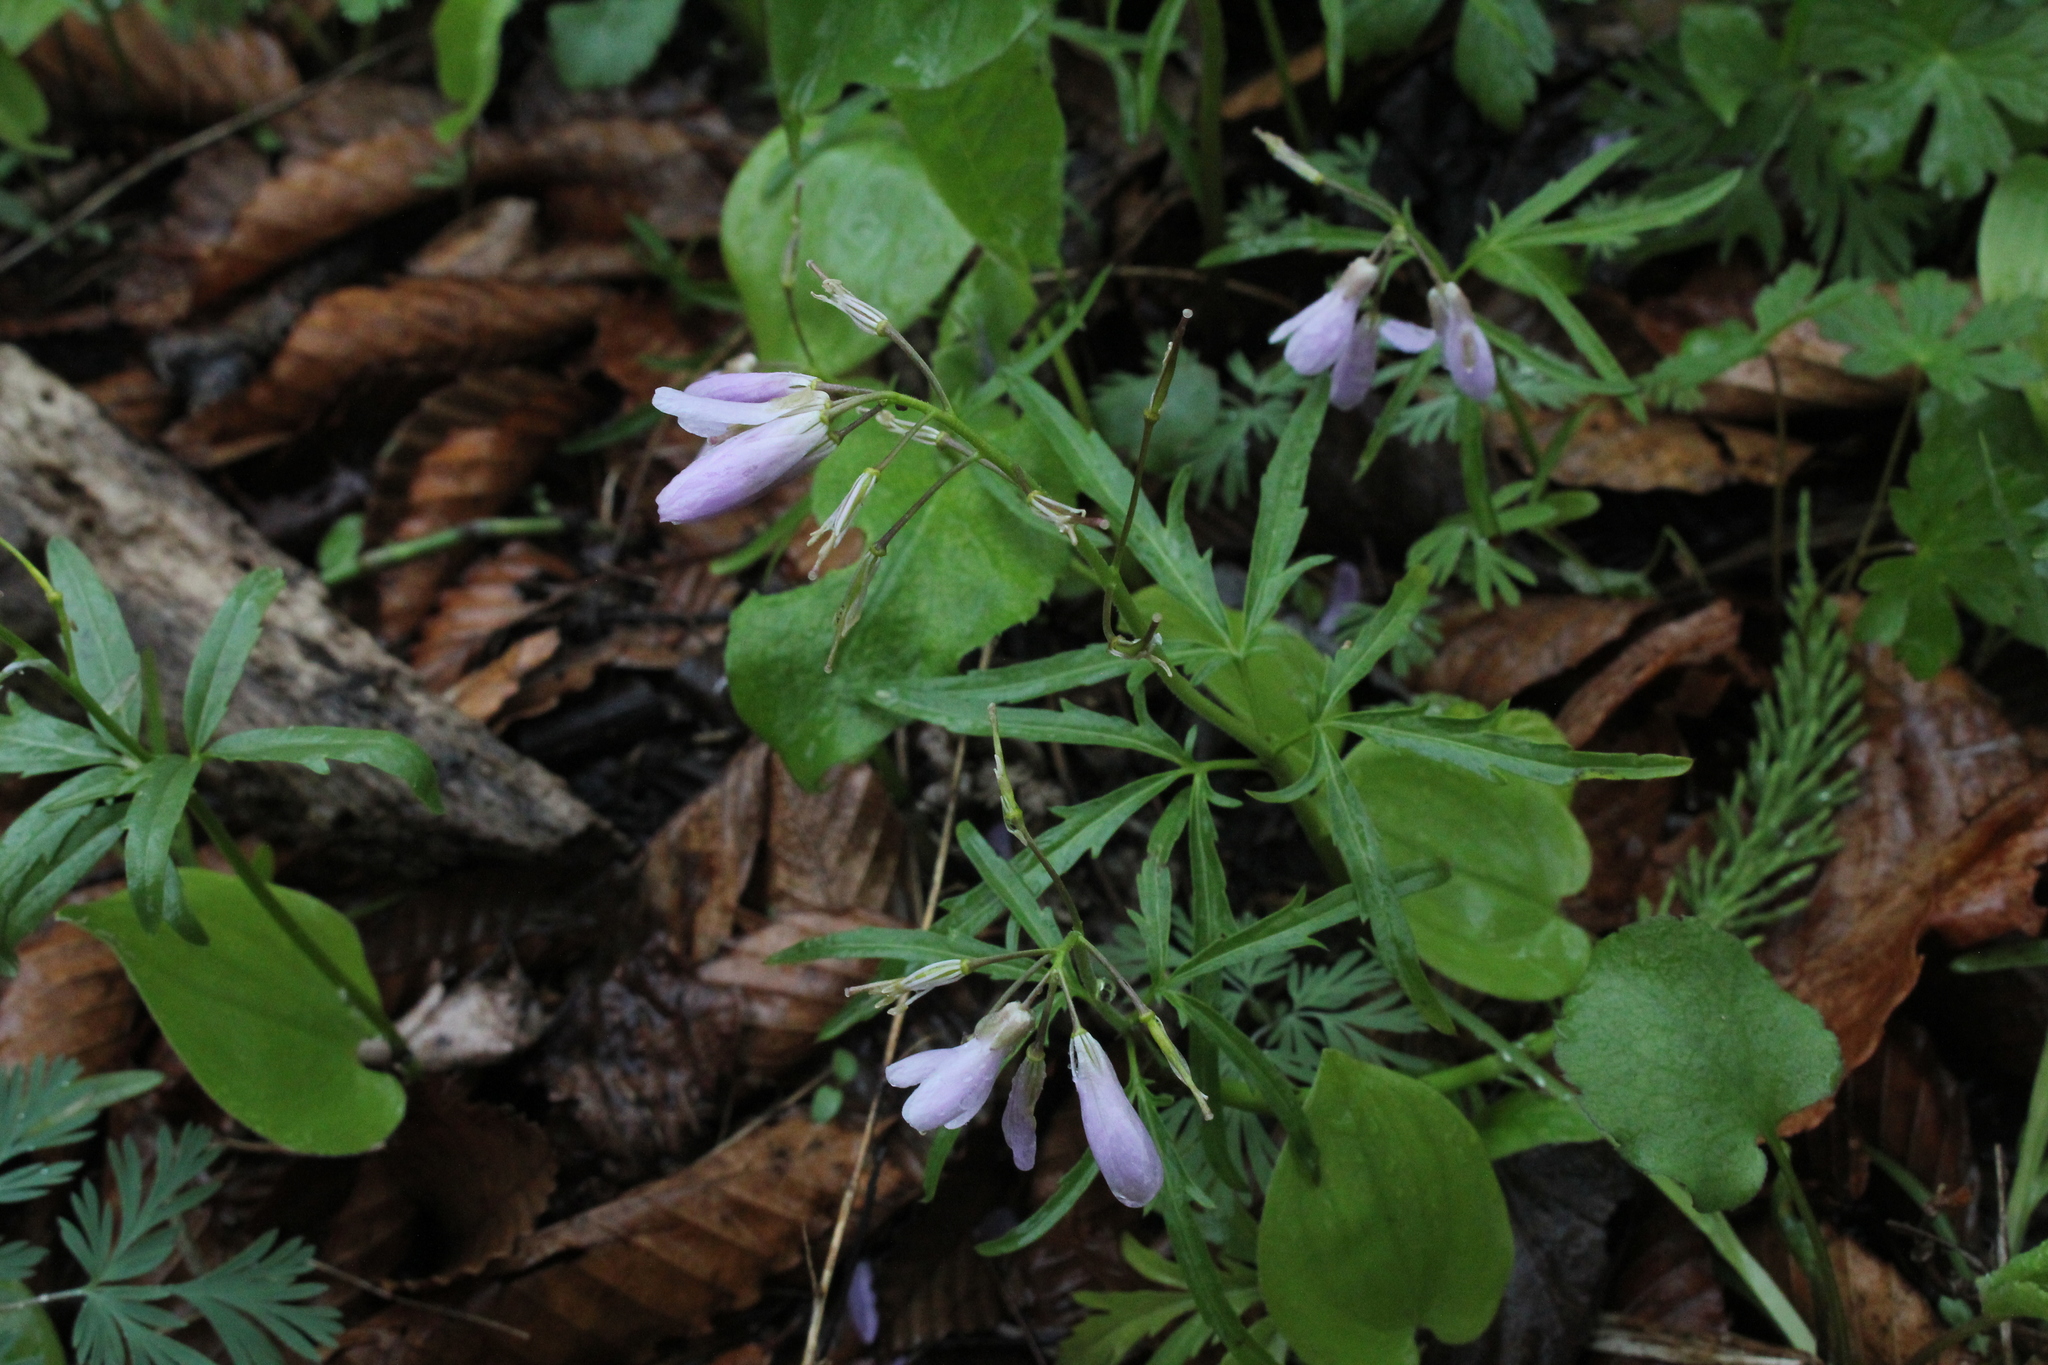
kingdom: Plantae
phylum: Tracheophyta
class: Magnoliopsida
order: Brassicales
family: Brassicaceae
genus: Cardamine
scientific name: Cardamine concatenata
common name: Cut-leaf toothcup
